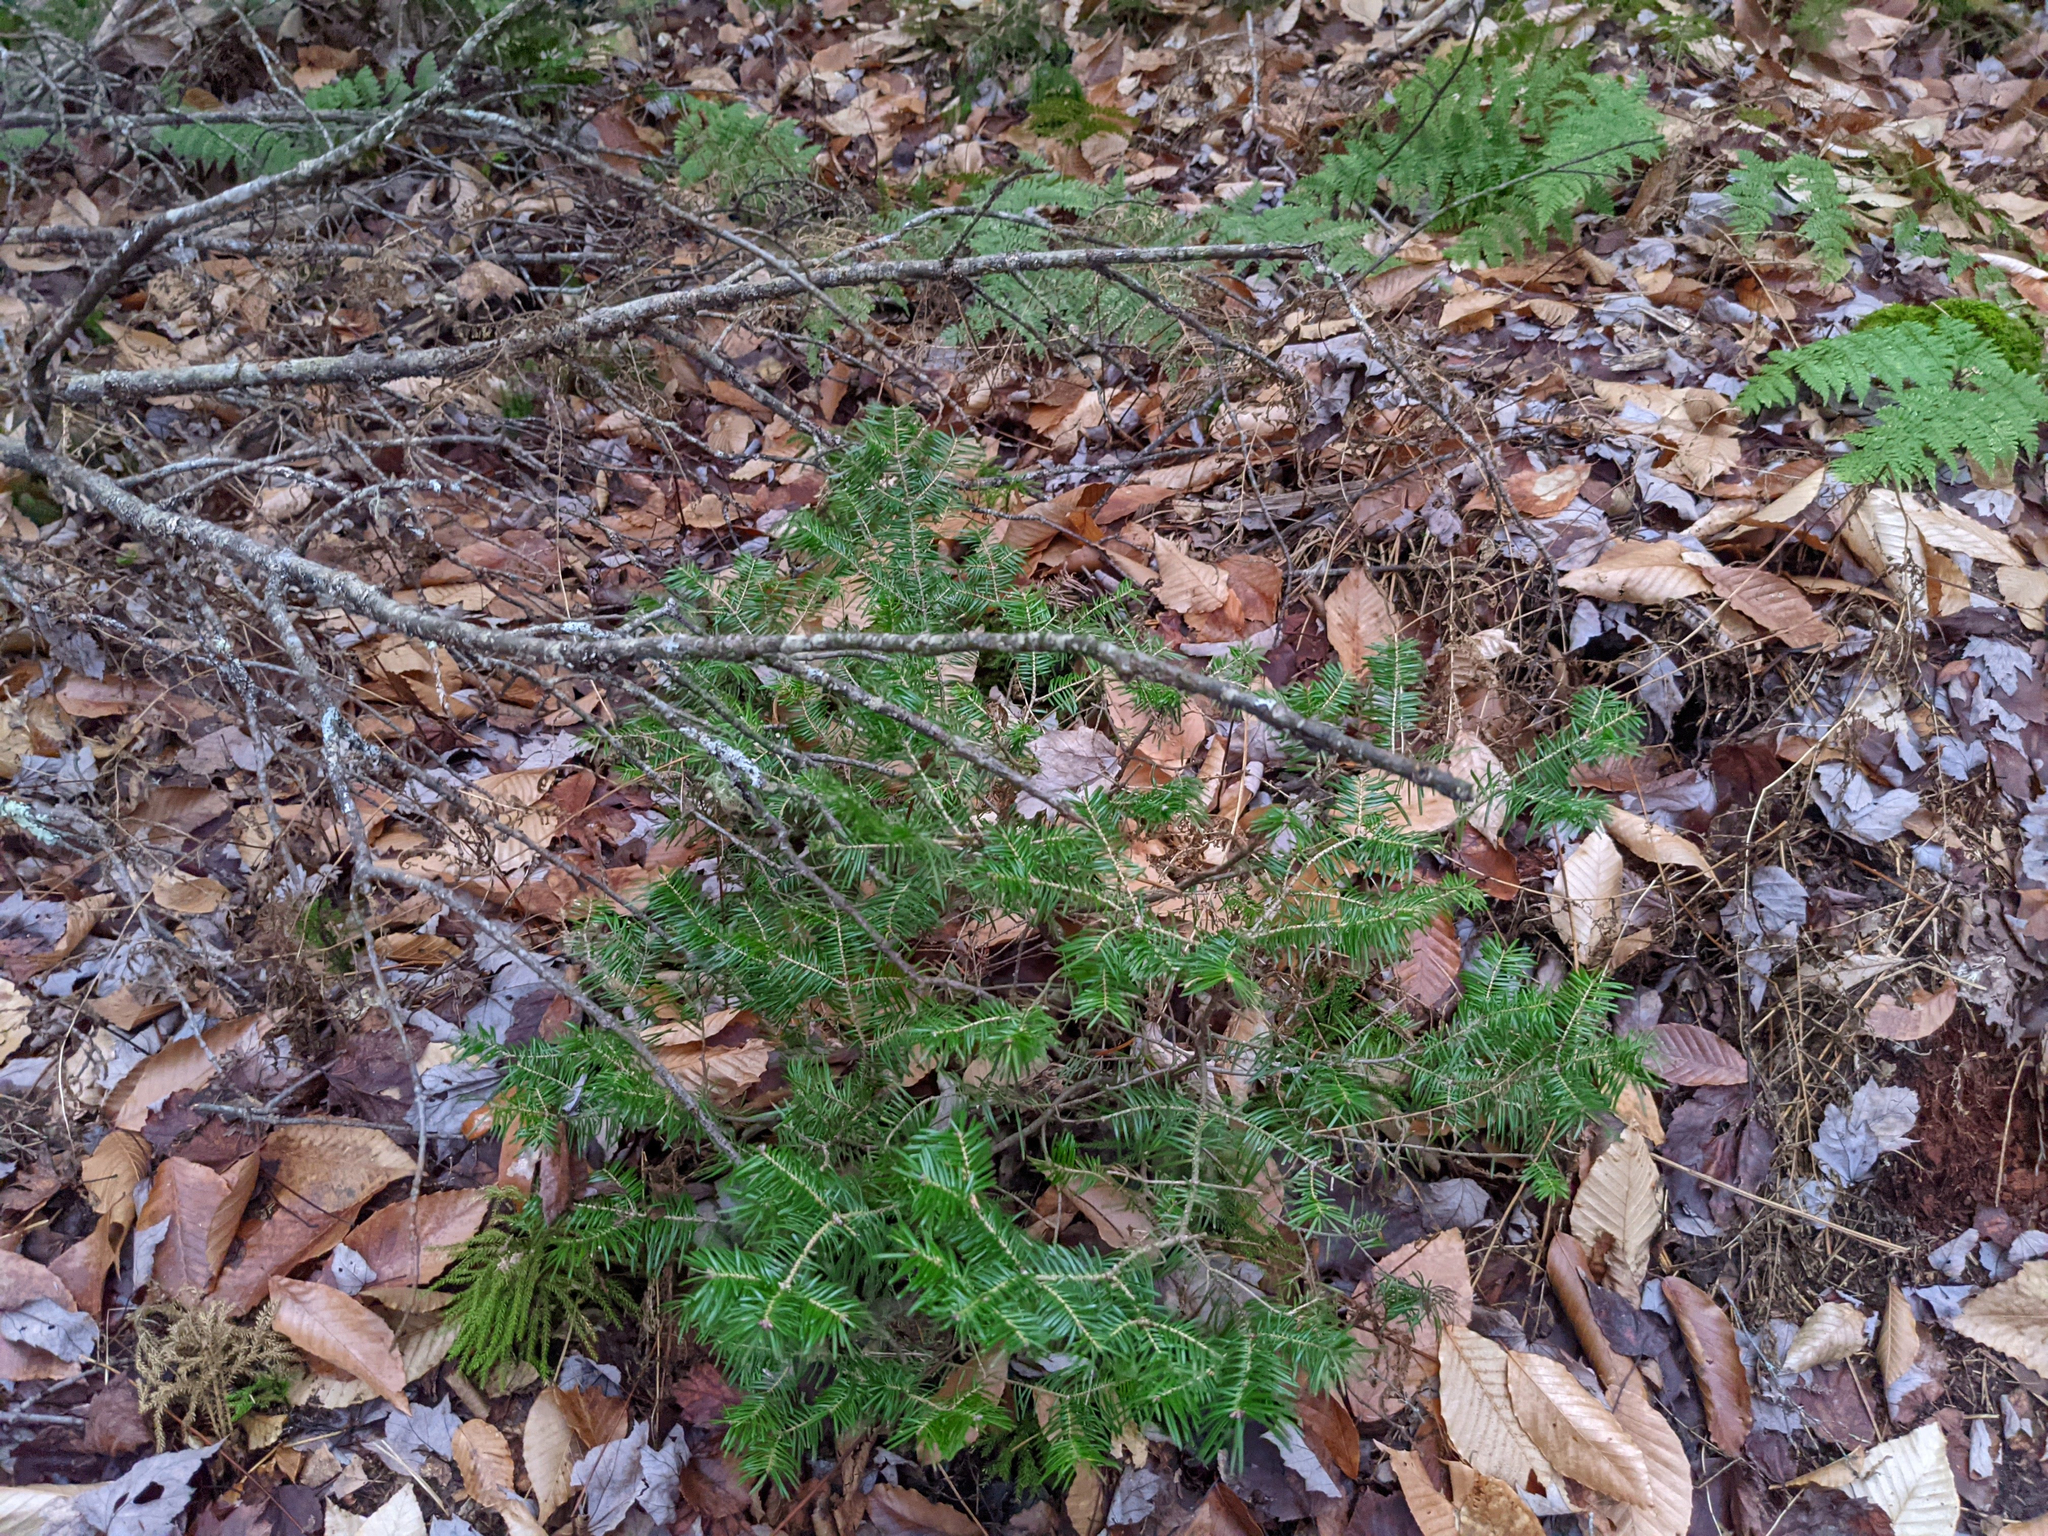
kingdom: Plantae
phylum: Tracheophyta
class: Pinopsida
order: Pinales
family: Pinaceae
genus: Abies
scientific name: Abies balsamea
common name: Balsam fir
